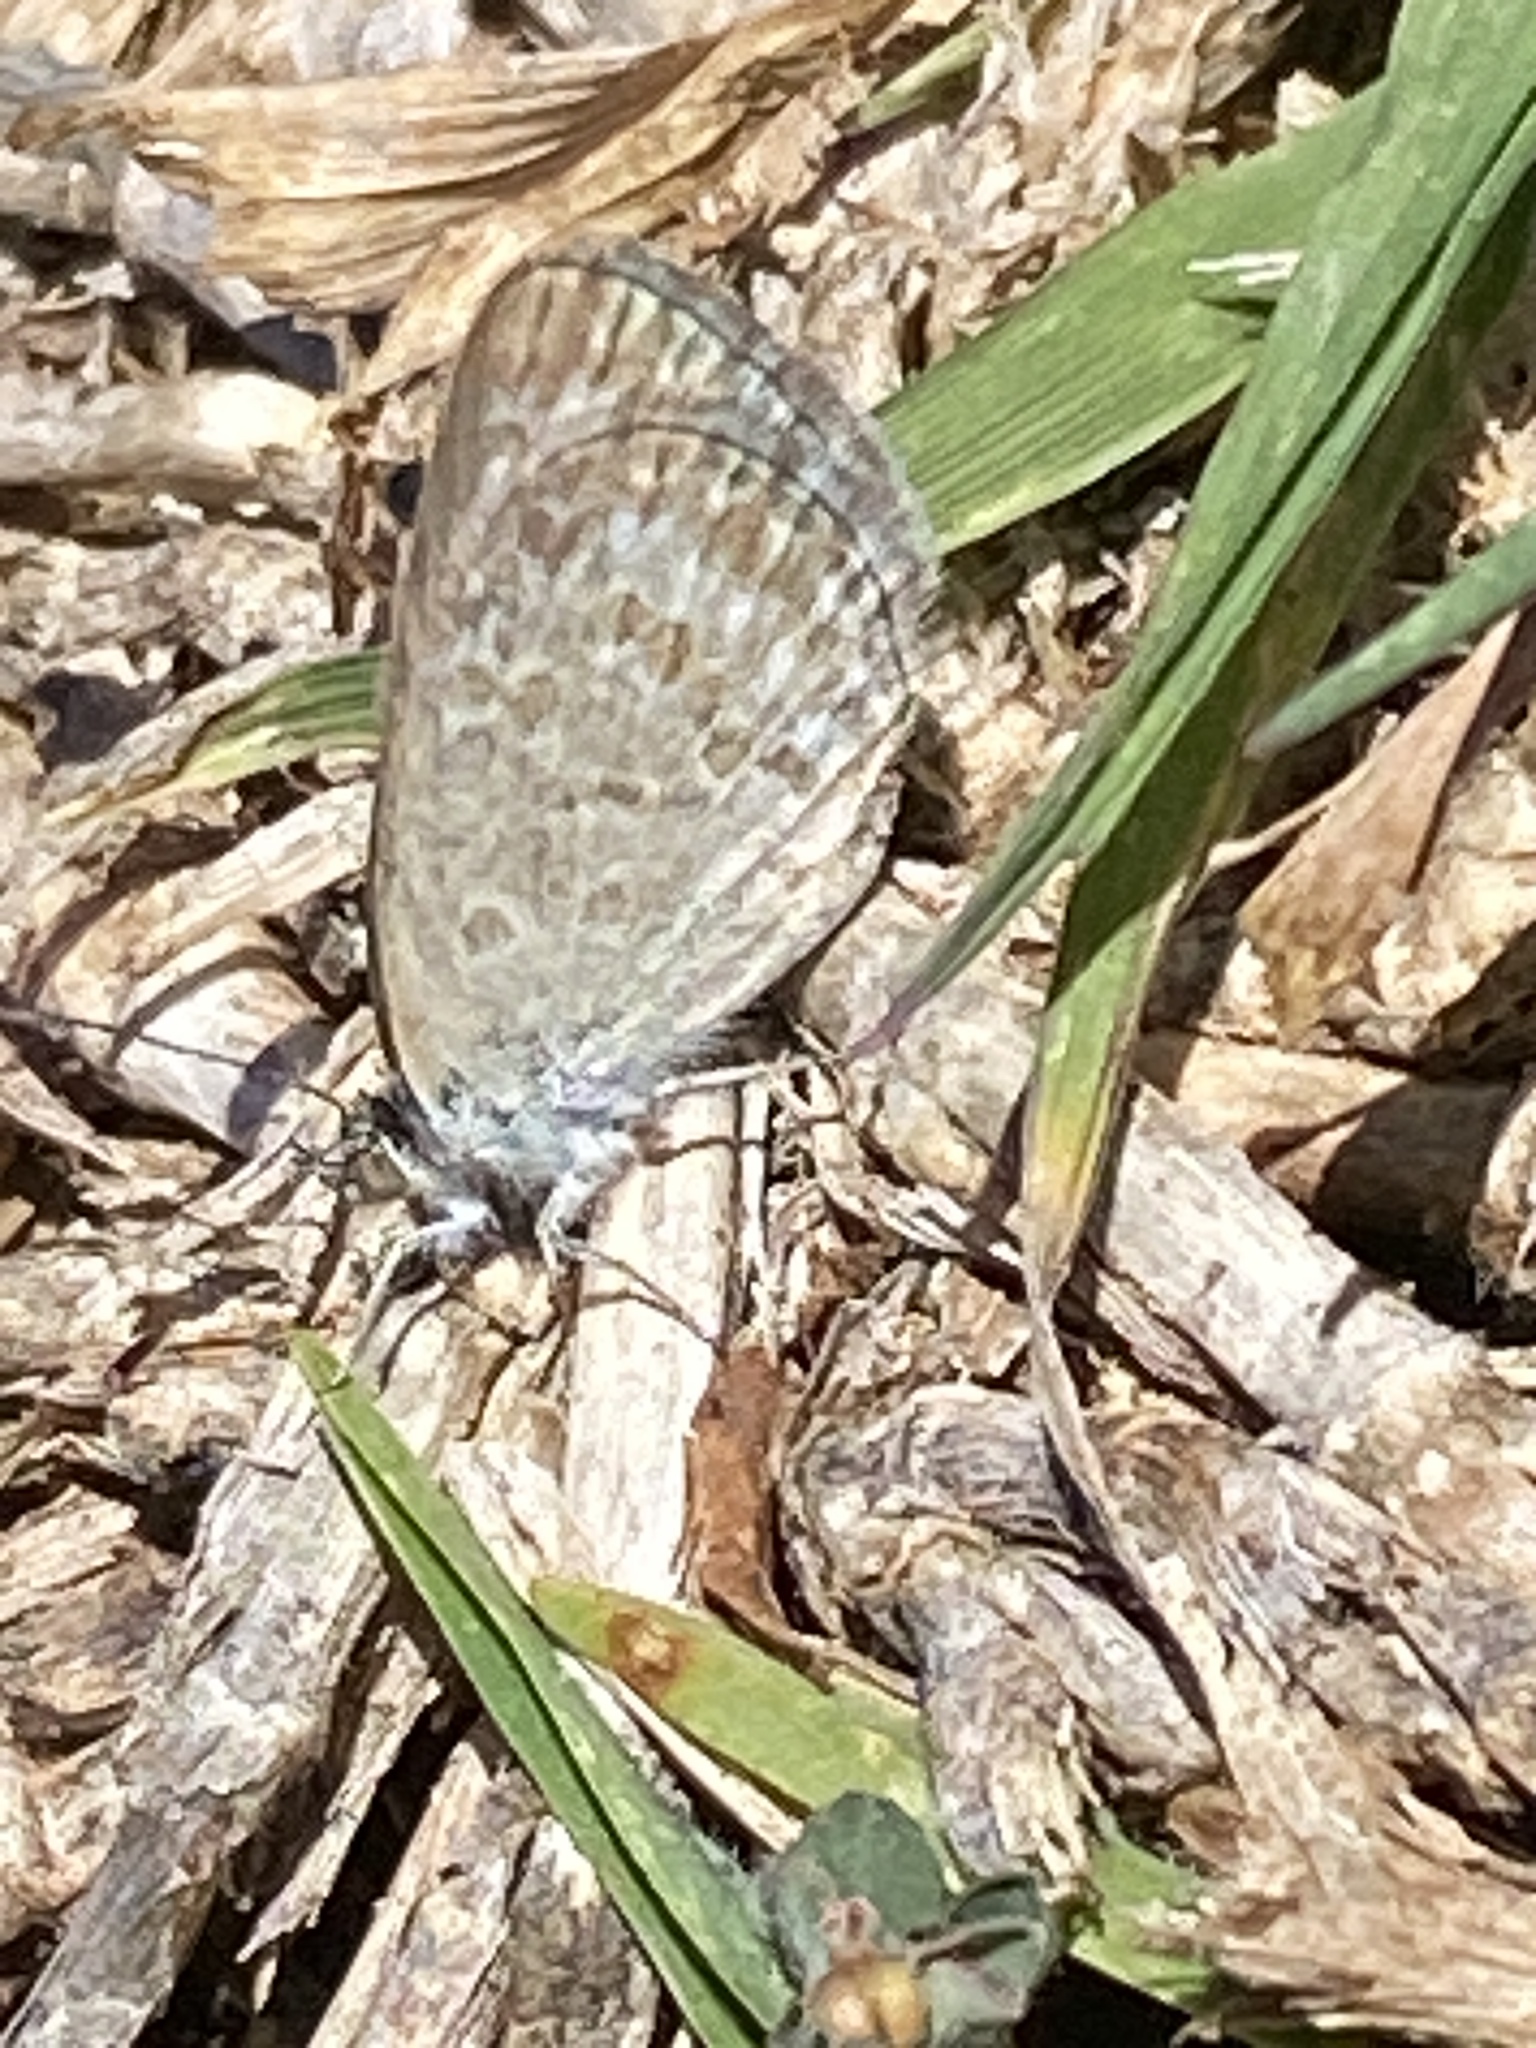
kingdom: Animalia
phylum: Arthropoda
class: Insecta
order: Lepidoptera
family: Lycaenidae
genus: Zizina
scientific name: Zizina otis
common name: Lesser grass blue
